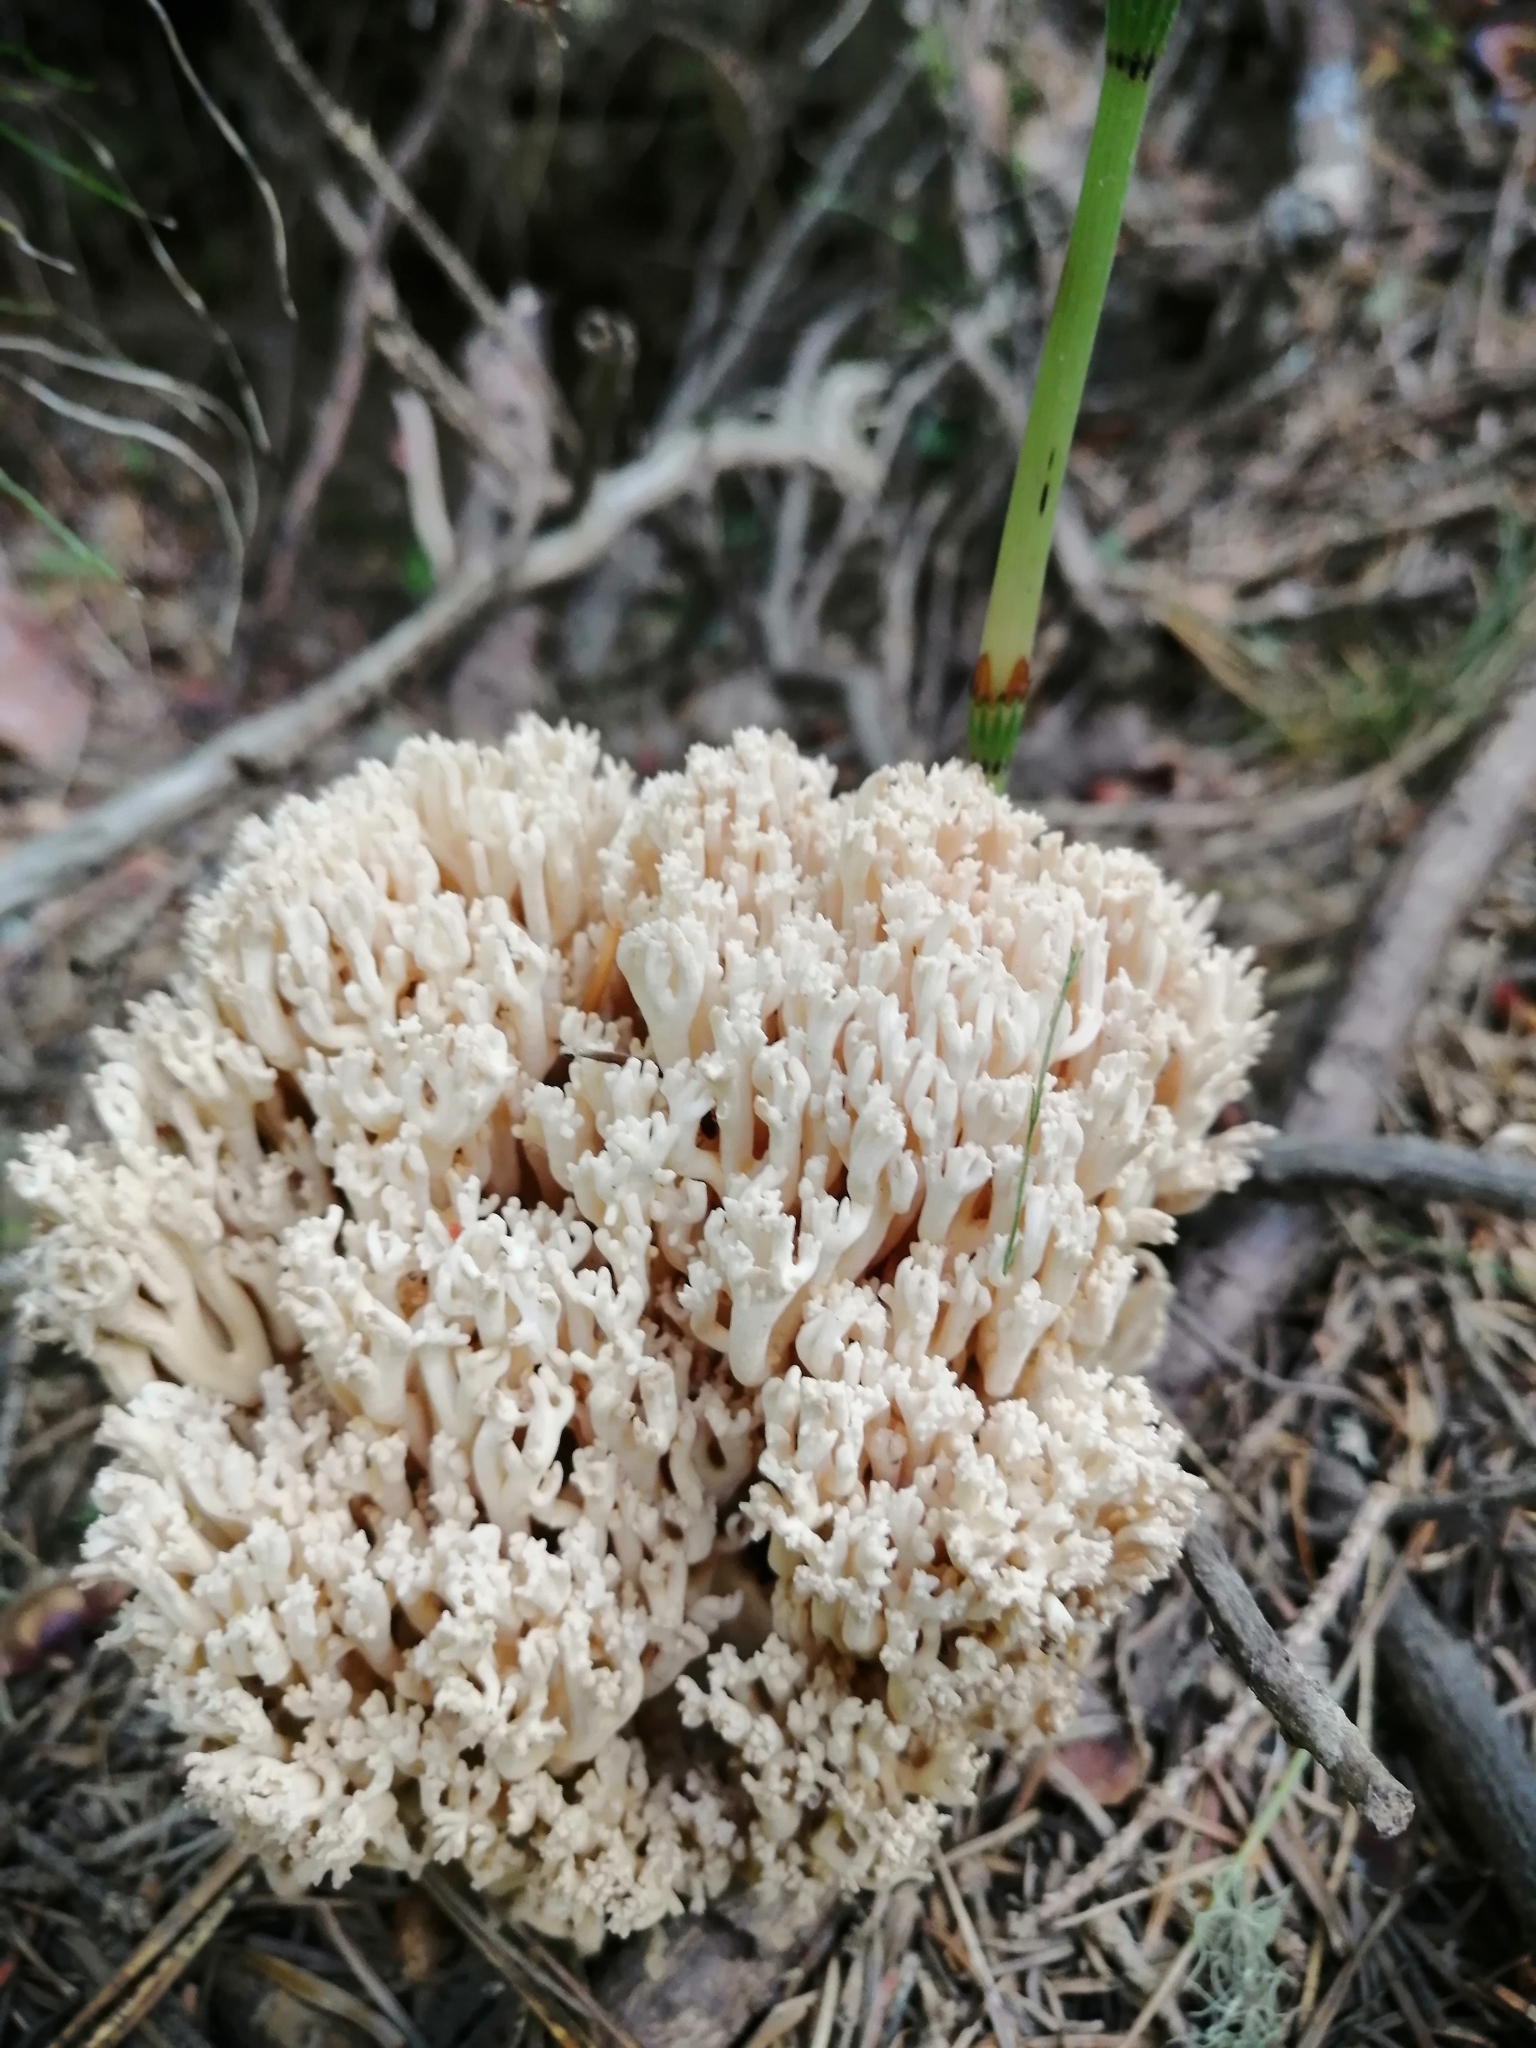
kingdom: Fungi
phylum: Basidiomycota
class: Agaricomycetes
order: Gomphales
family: Gomphaceae
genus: Ramaria
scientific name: Ramaria pallida
